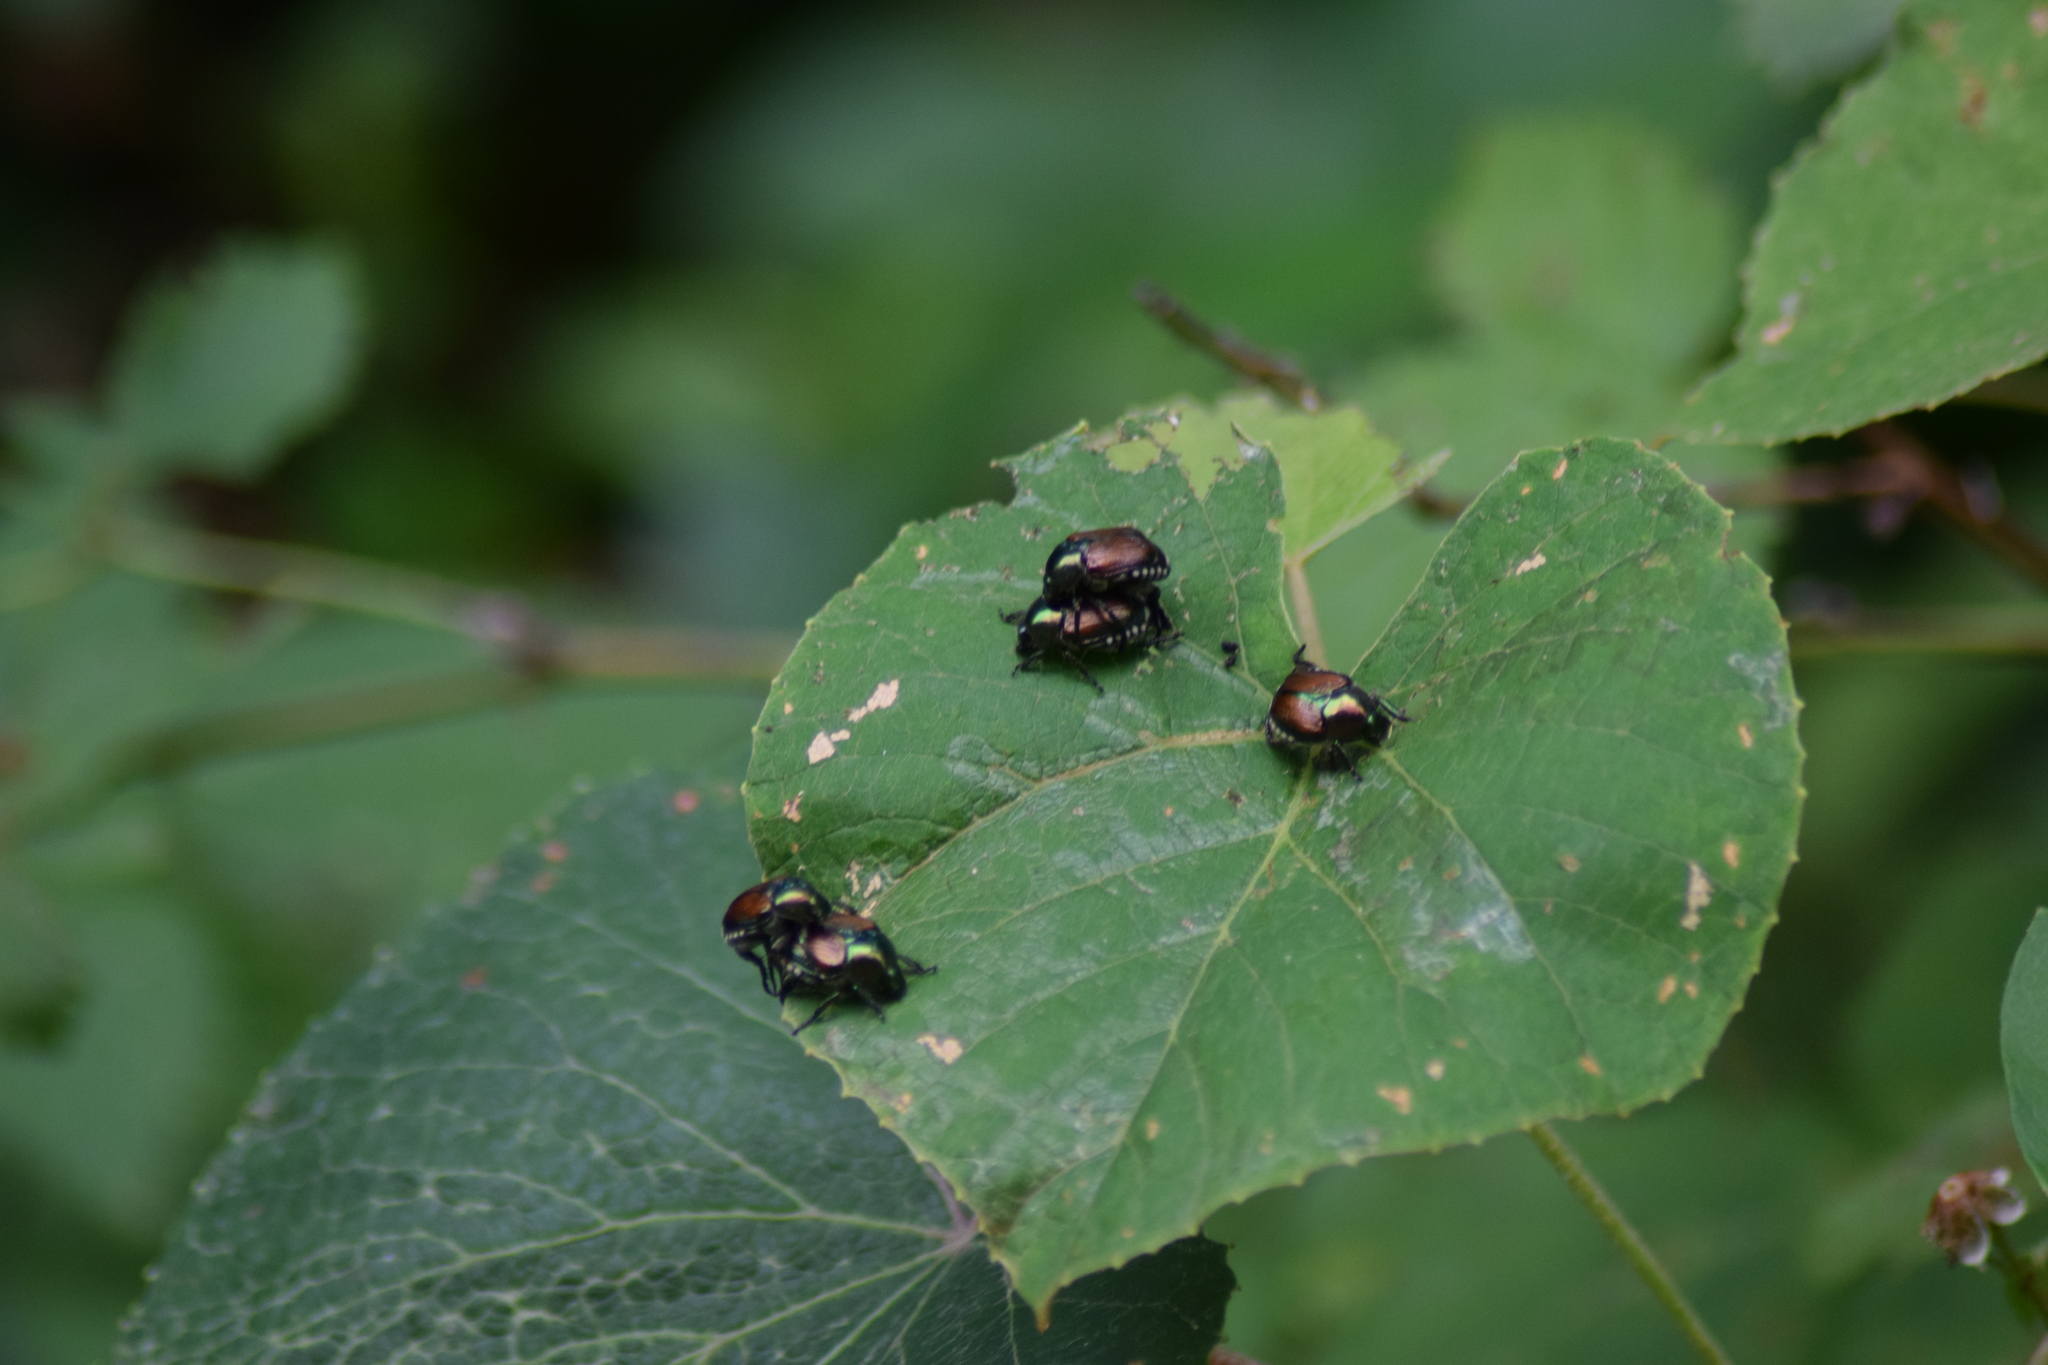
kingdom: Animalia
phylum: Arthropoda
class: Insecta
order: Coleoptera
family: Scarabaeidae
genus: Popillia
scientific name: Popillia japonica
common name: Japanese beetle
